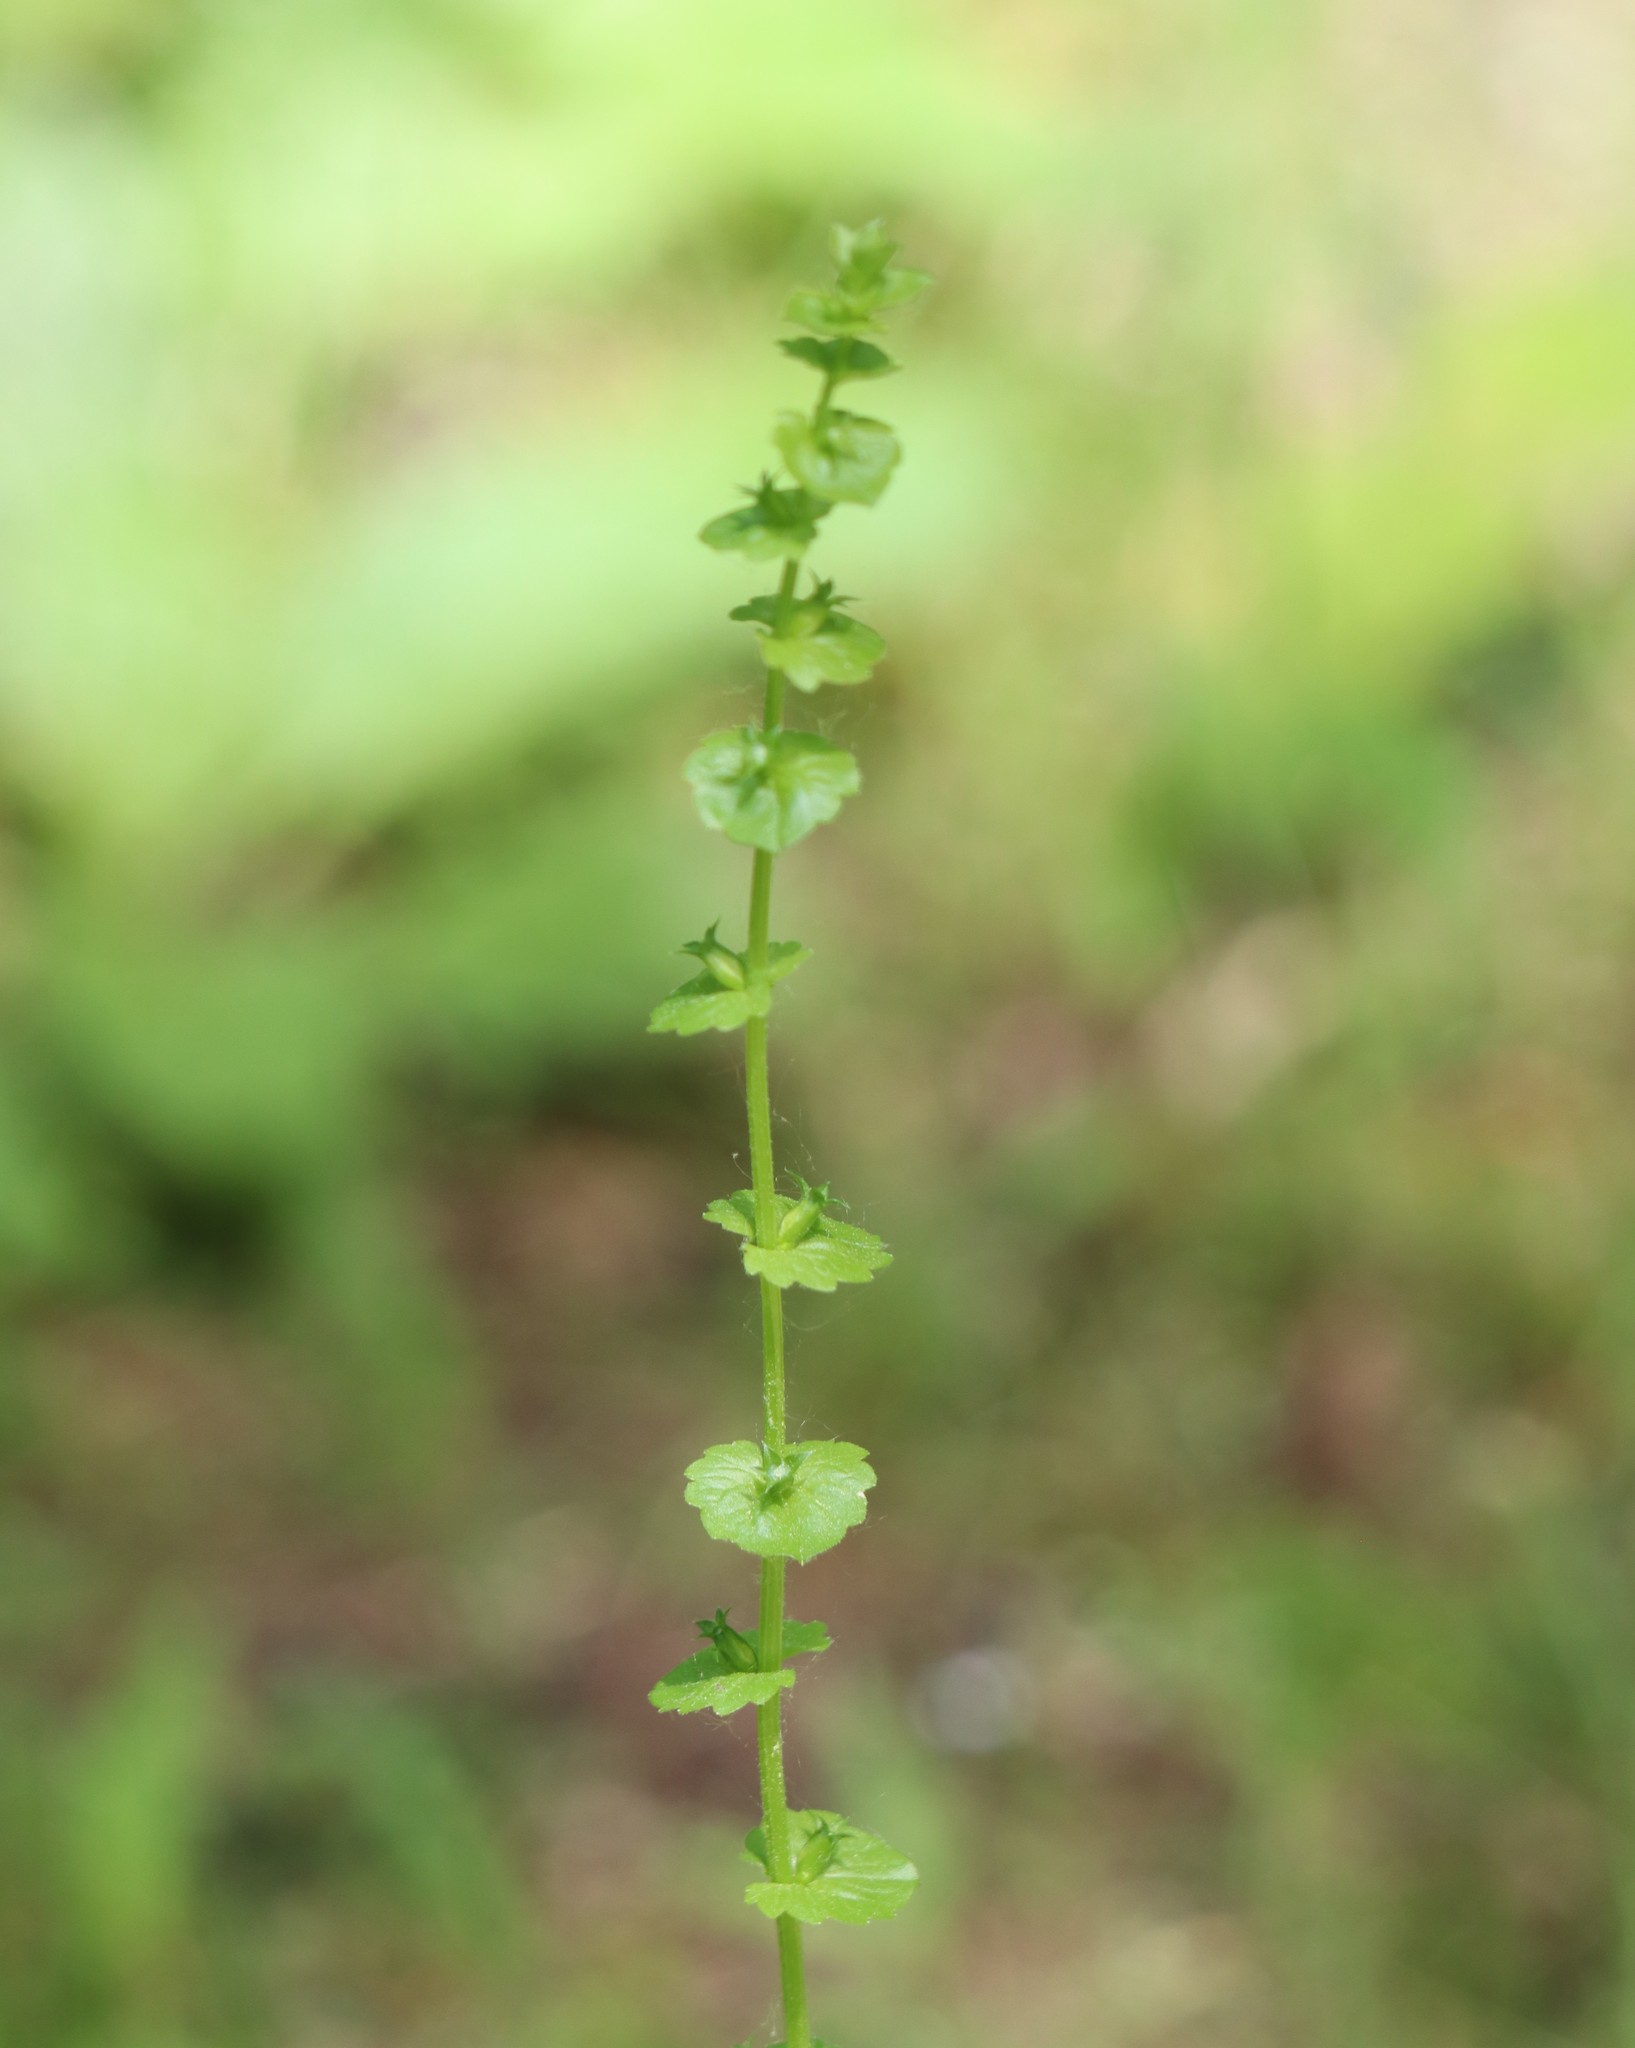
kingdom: Plantae
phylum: Tracheophyta
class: Magnoliopsida
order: Asterales
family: Campanulaceae
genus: Triodanis
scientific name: Triodanis perfoliata
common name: Clasping venus' looking-glass
